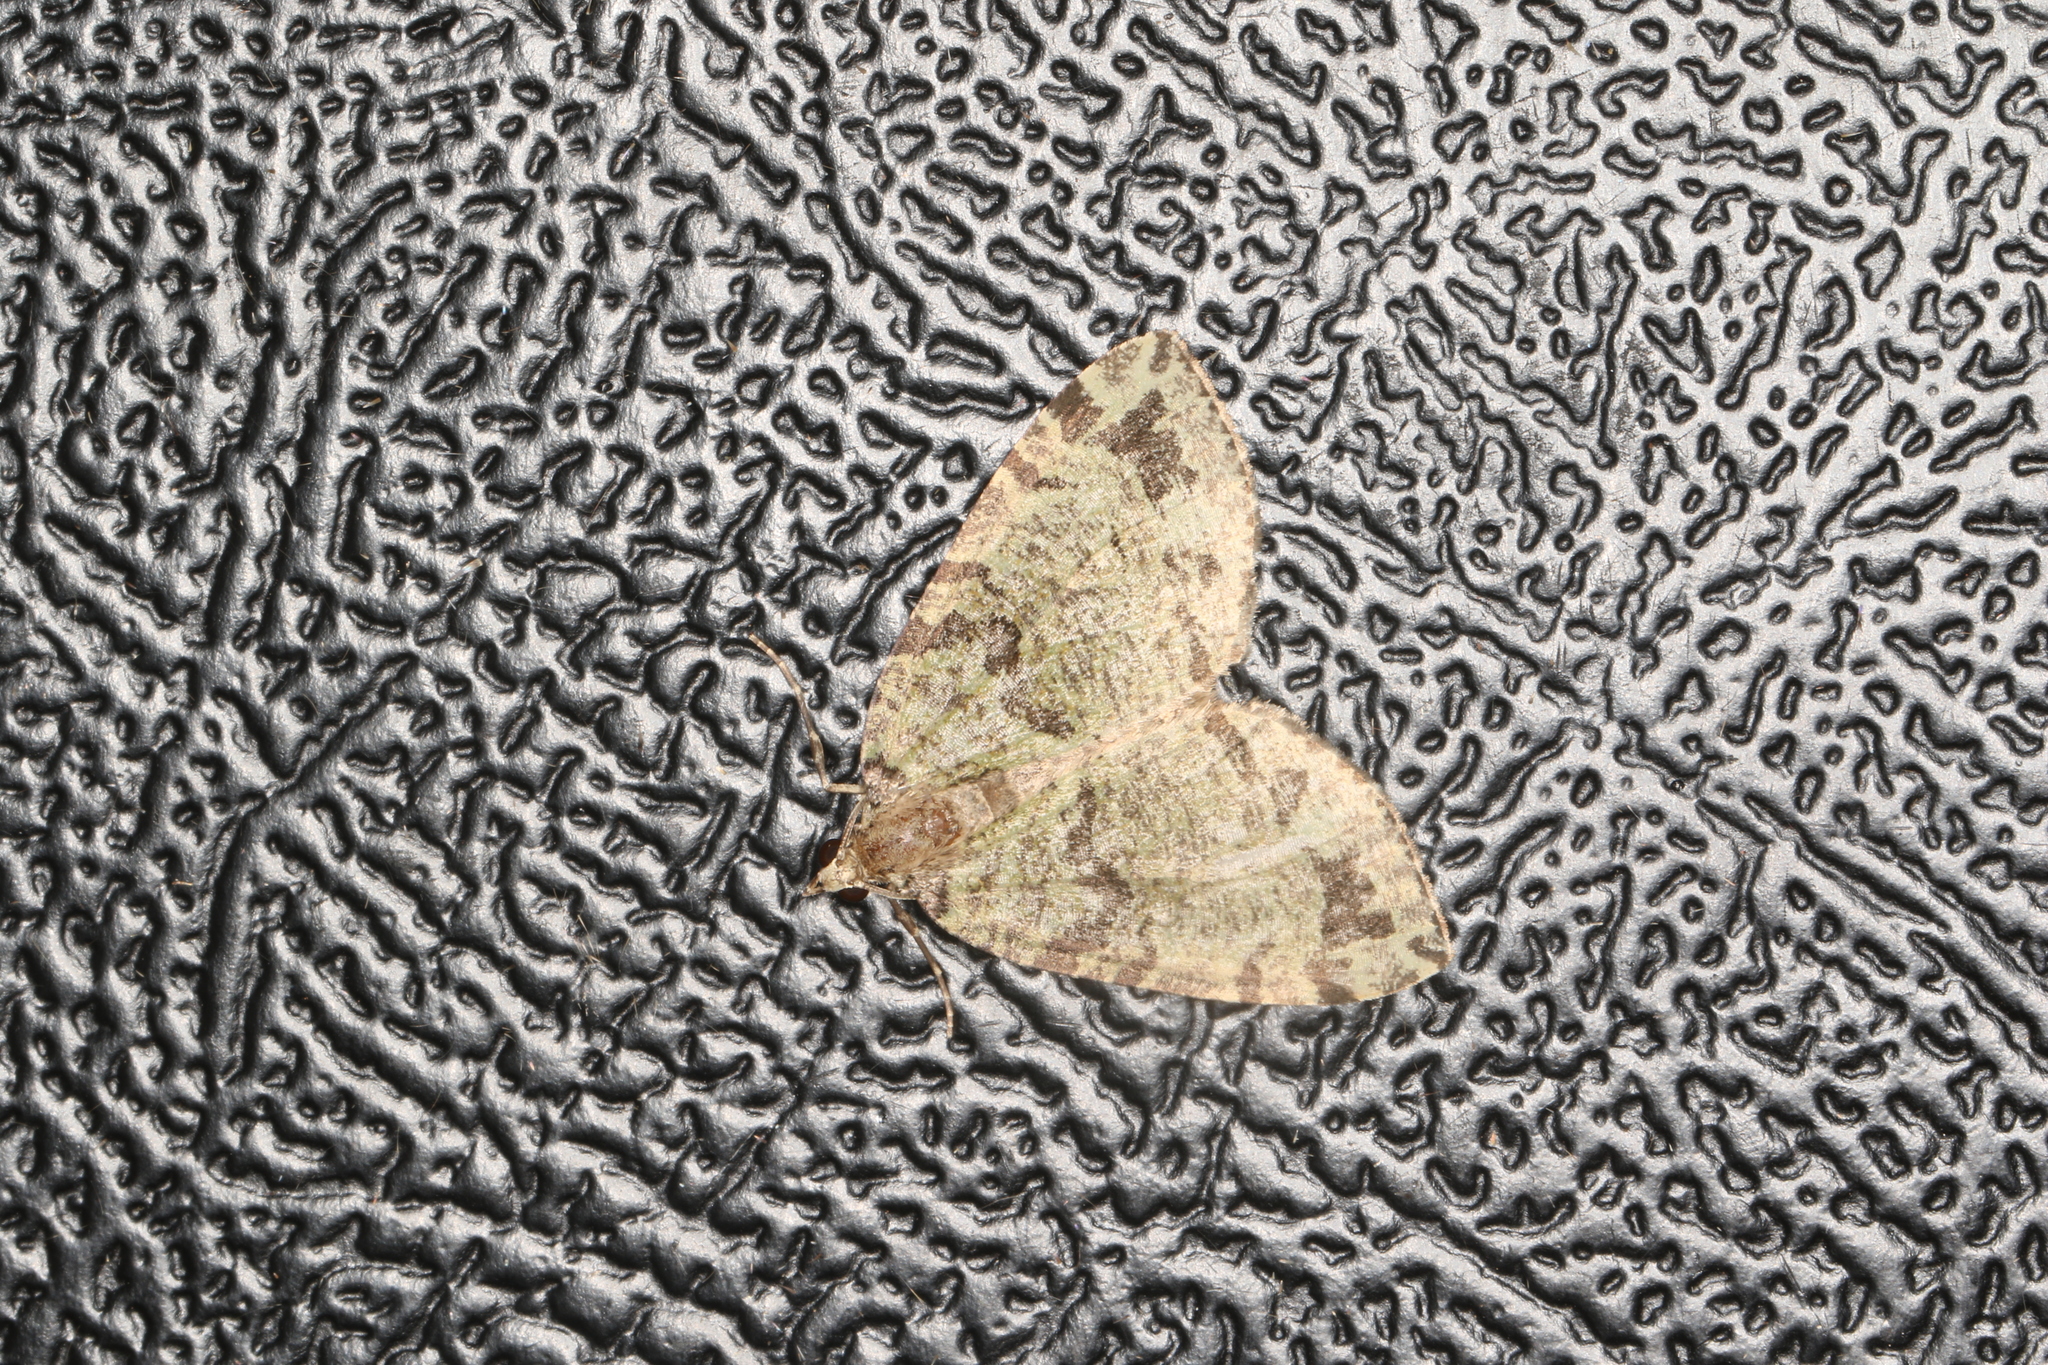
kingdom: Animalia
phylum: Arthropoda
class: Insecta
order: Lepidoptera
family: Geometridae
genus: Hydriomena
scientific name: Hydriomena furcata
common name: July highflyer
